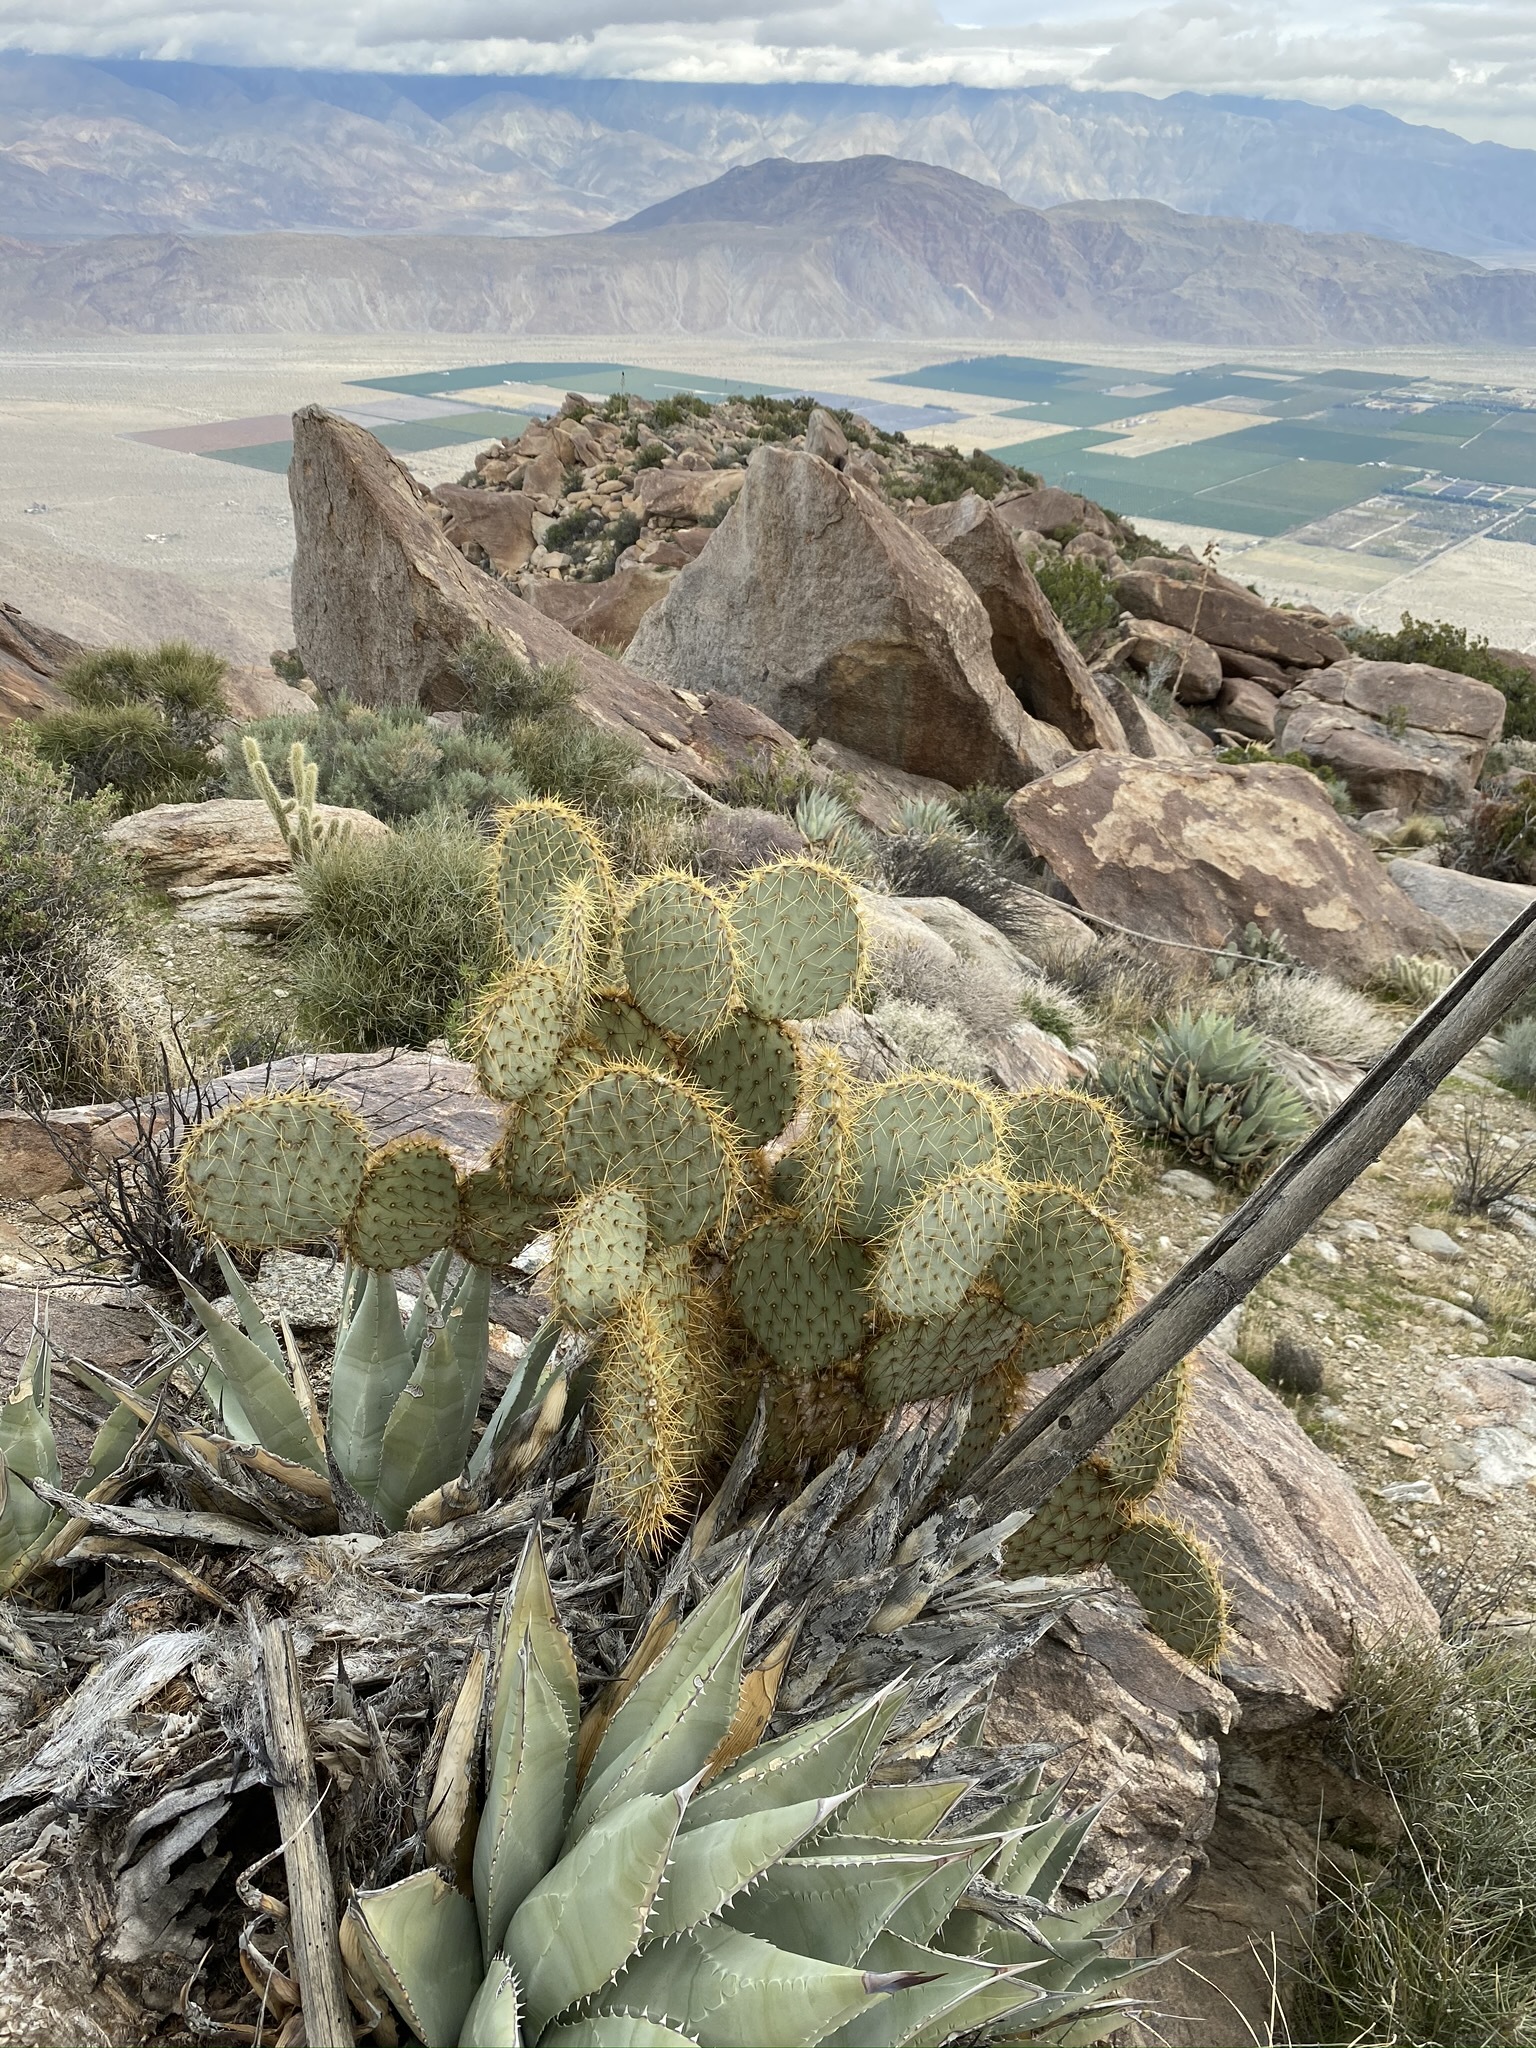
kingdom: Plantae
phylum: Tracheophyta
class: Magnoliopsida
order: Caryophyllales
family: Cactaceae
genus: Opuntia
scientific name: Opuntia chlorotica
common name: Dollar-joint prickly-pear
